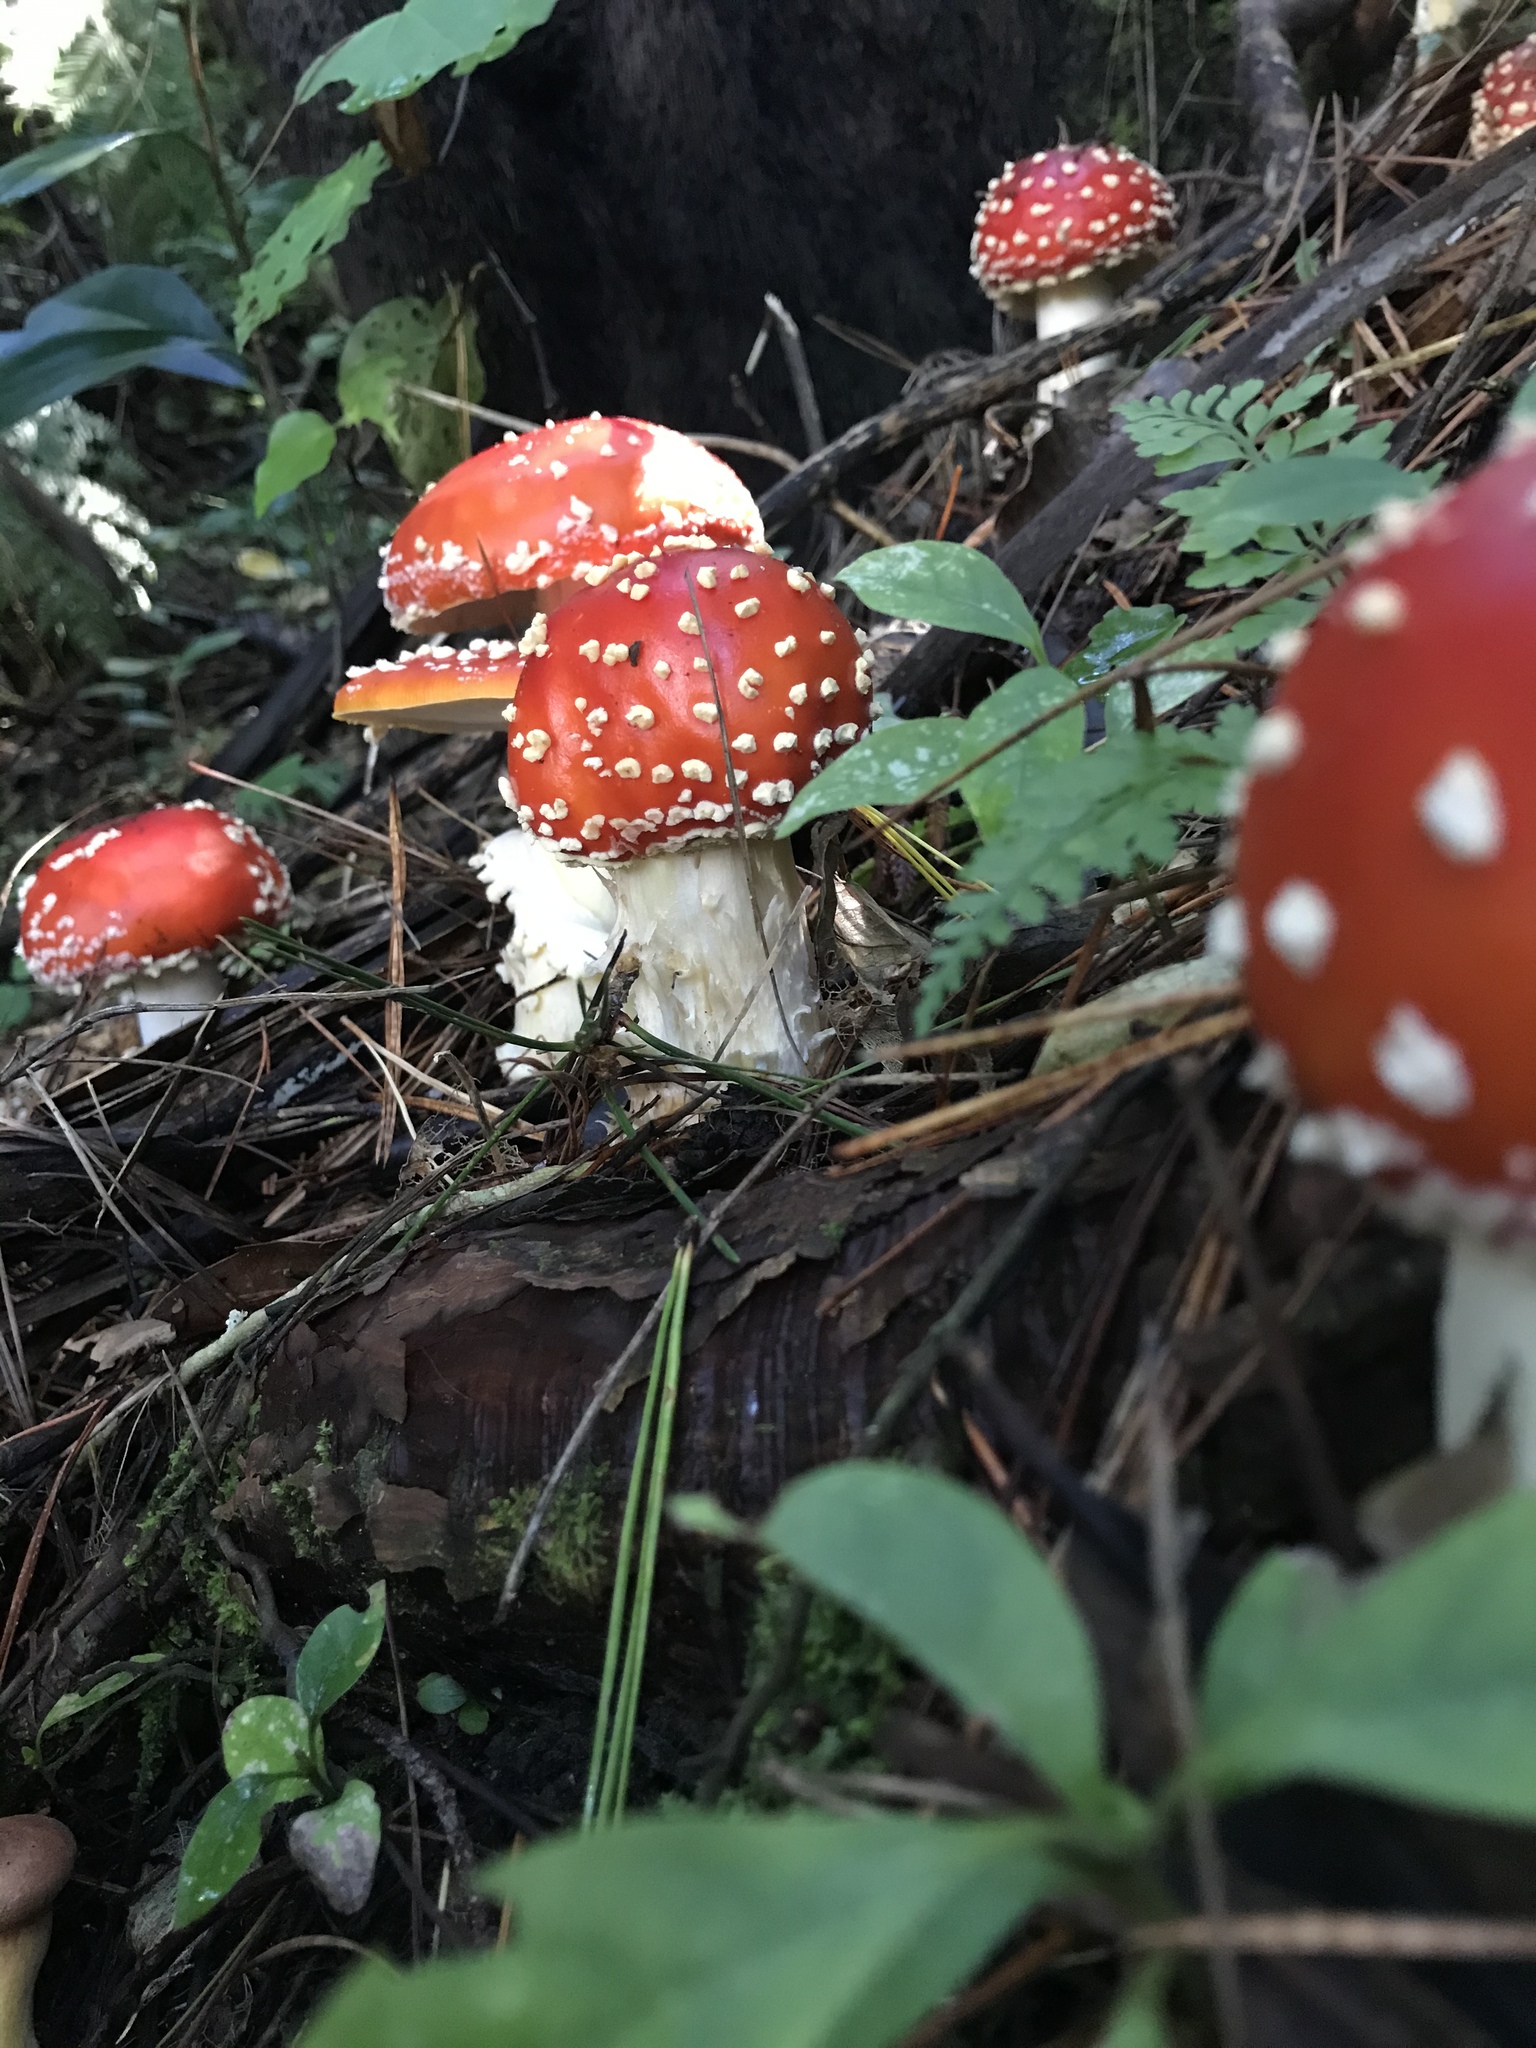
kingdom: Fungi
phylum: Basidiomycota
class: Agaricomycetes
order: Agaricales
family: Amanitaceae
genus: Amanita
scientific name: Amanita muscaria
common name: Fly agaric
